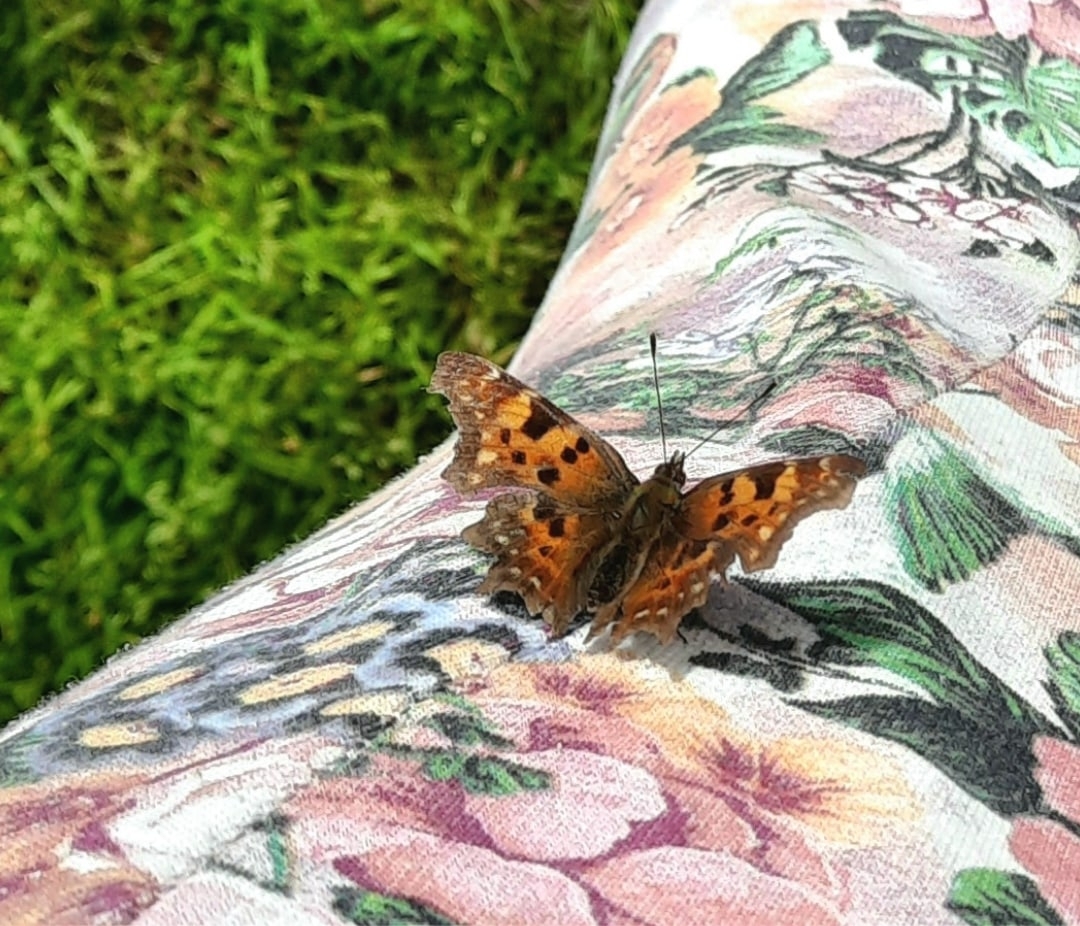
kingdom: Animalia
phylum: Arthropoda
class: Insecta
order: Lepidoptera
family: Nymphalidae
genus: Polygonia
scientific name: Polygonia c-album
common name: Comma
